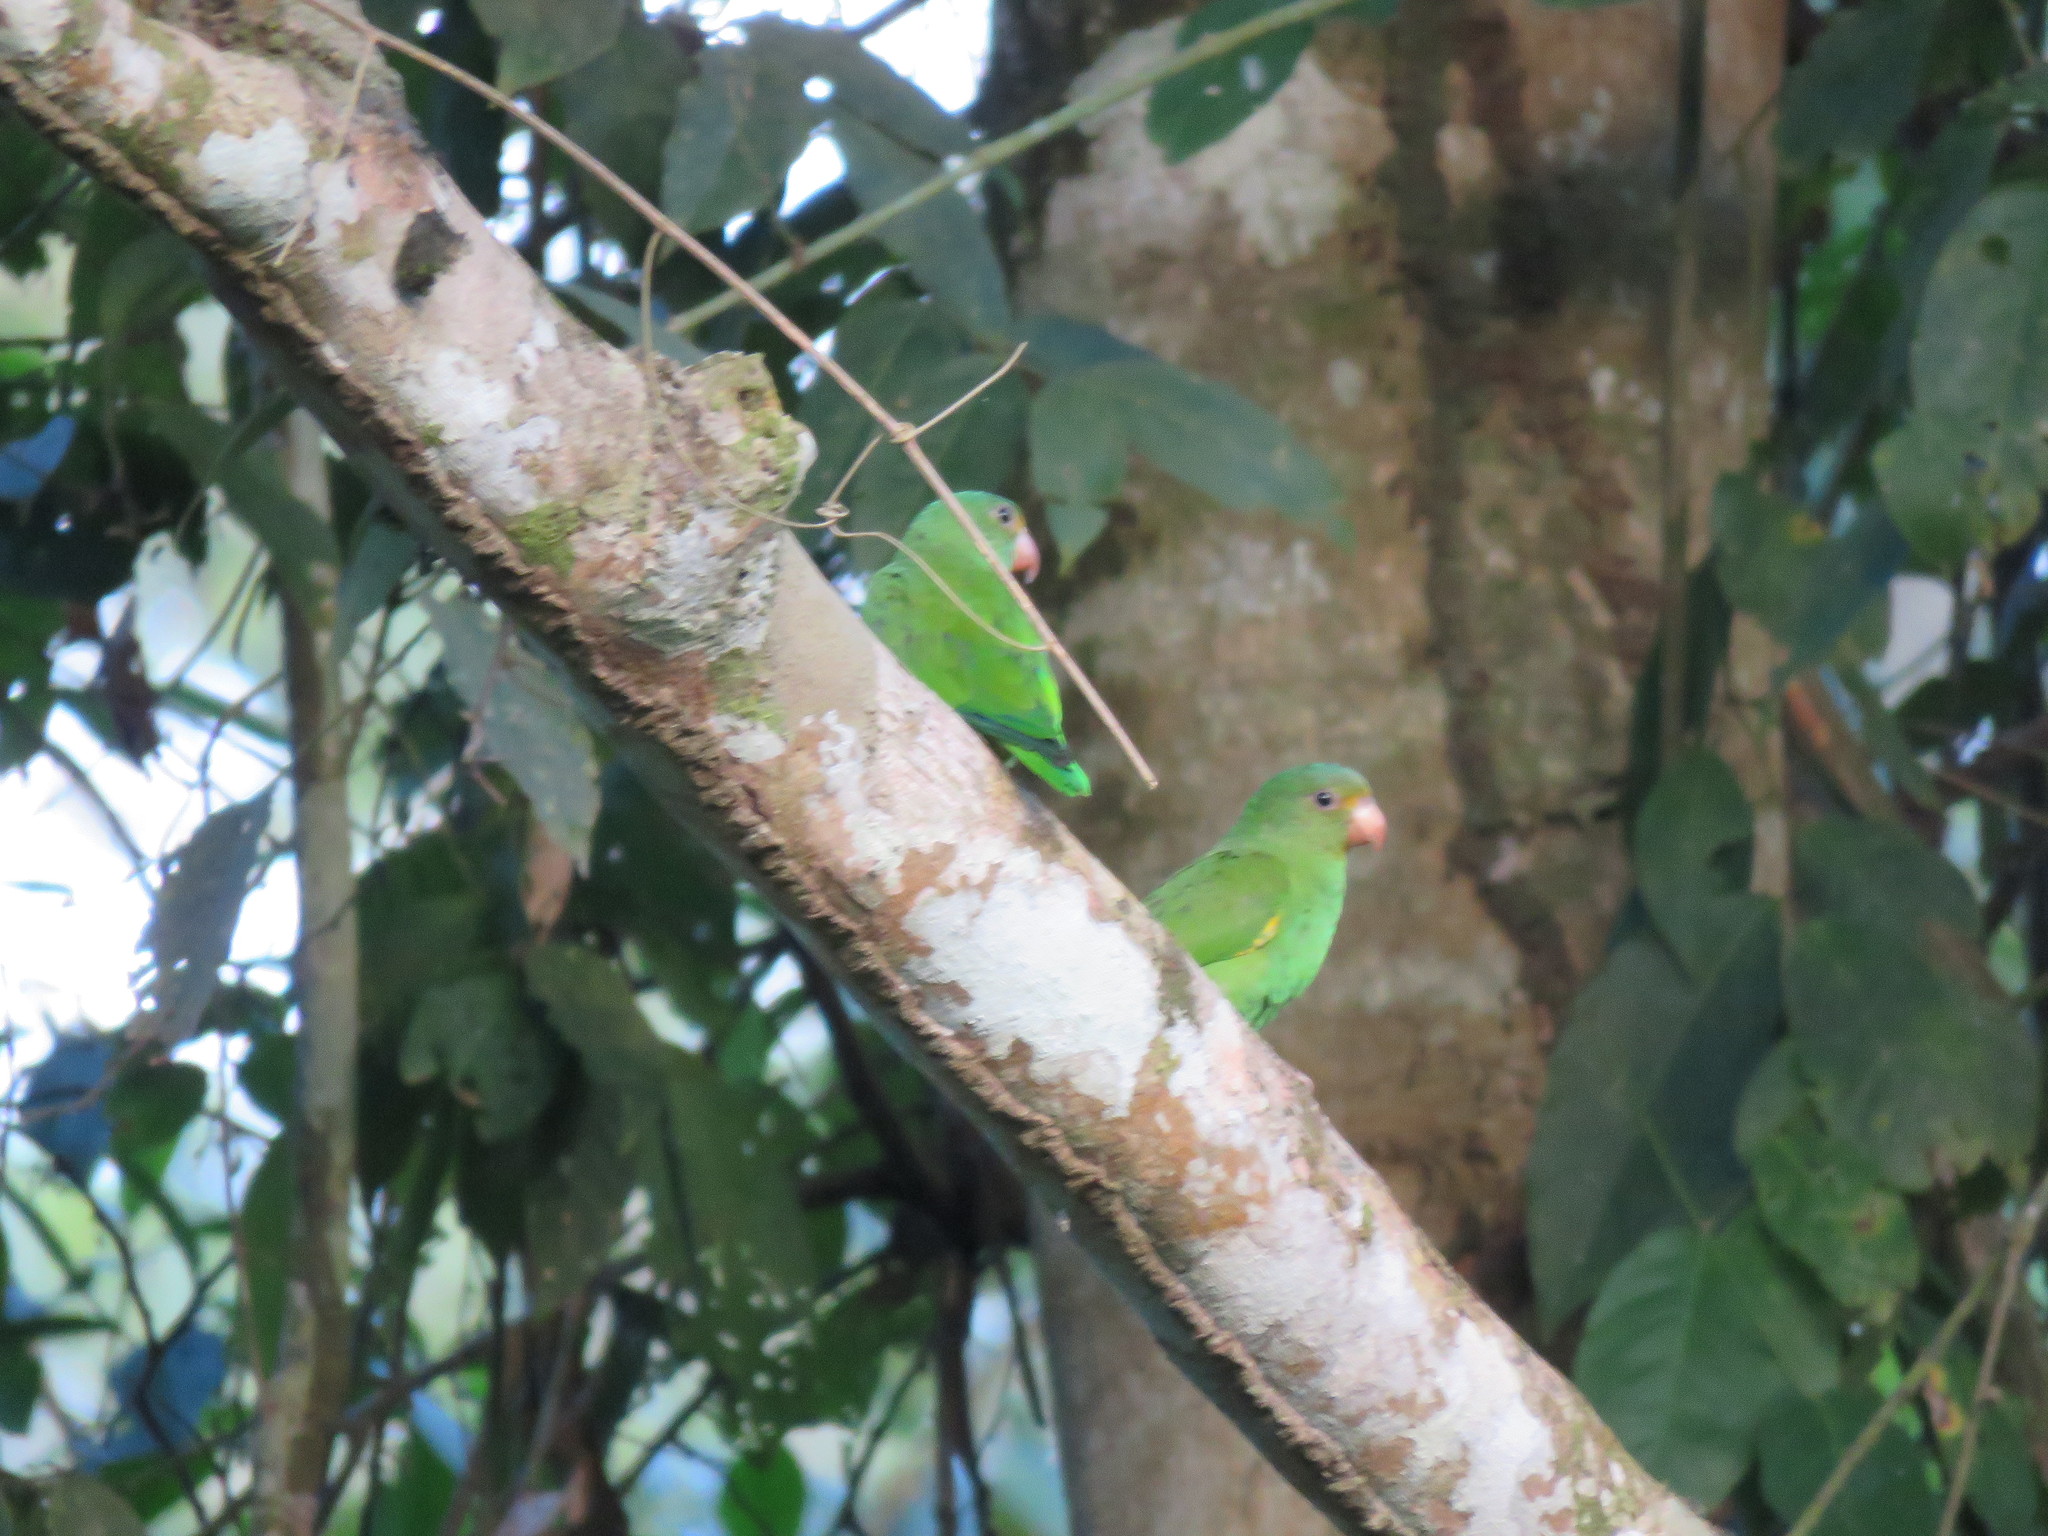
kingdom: Animalia
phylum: Chordata
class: Aves
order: Psittaciformes
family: Psittacidae
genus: Brotogeris
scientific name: Brotogeris cyanoptera
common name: Cobalt-winged parakeet
